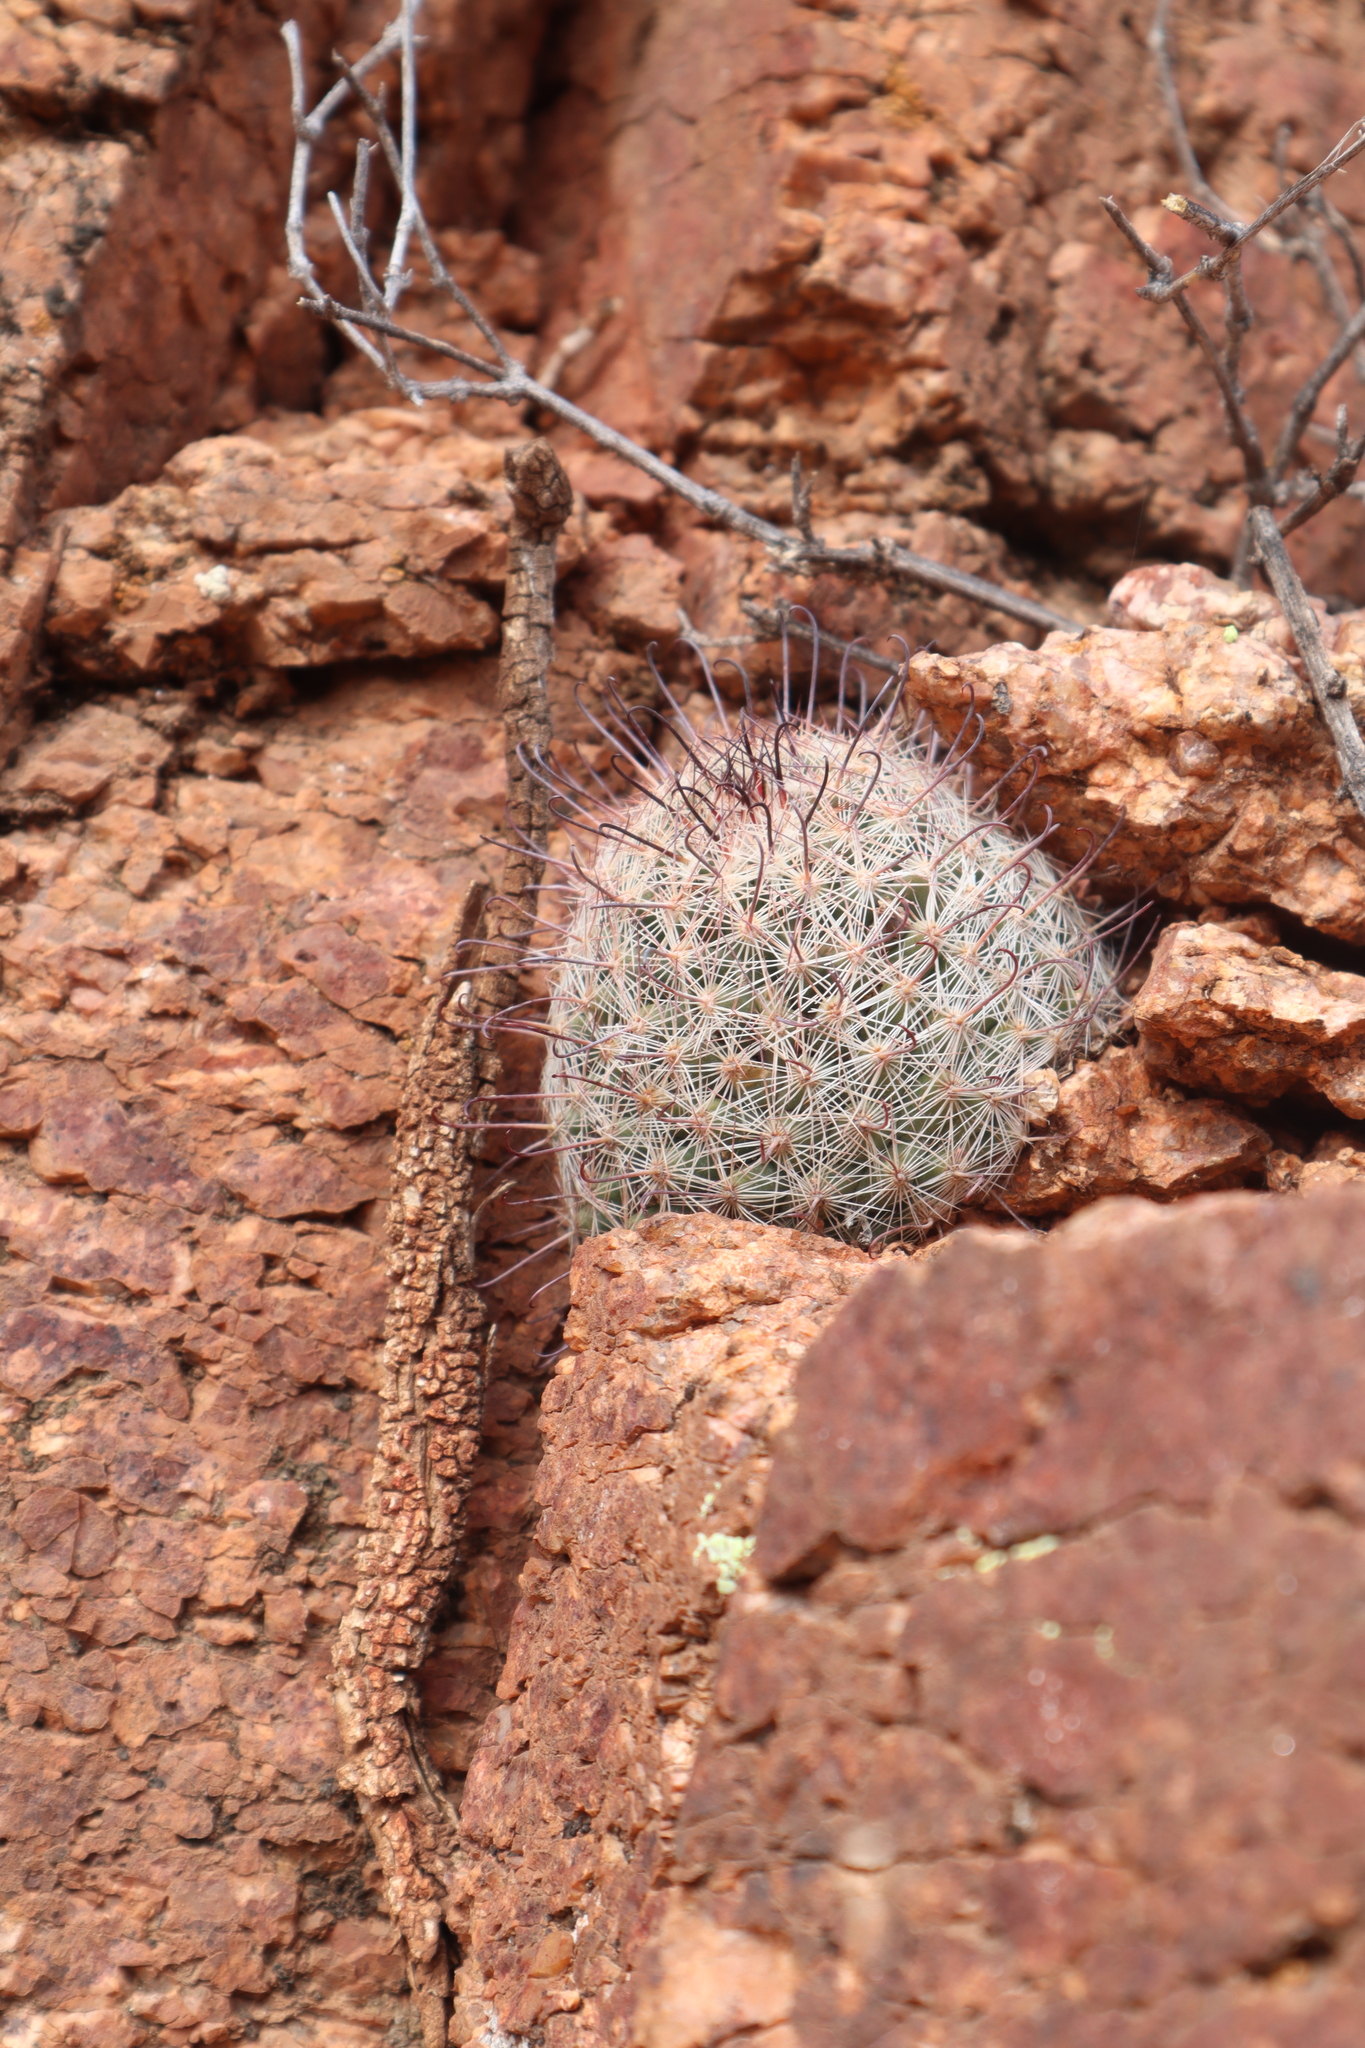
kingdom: Plantae
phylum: Tracheophyta
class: Magnoliopsida
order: Caryophyllales
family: Cactaceae
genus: Cochemiea
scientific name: Cochemiea grahamii
